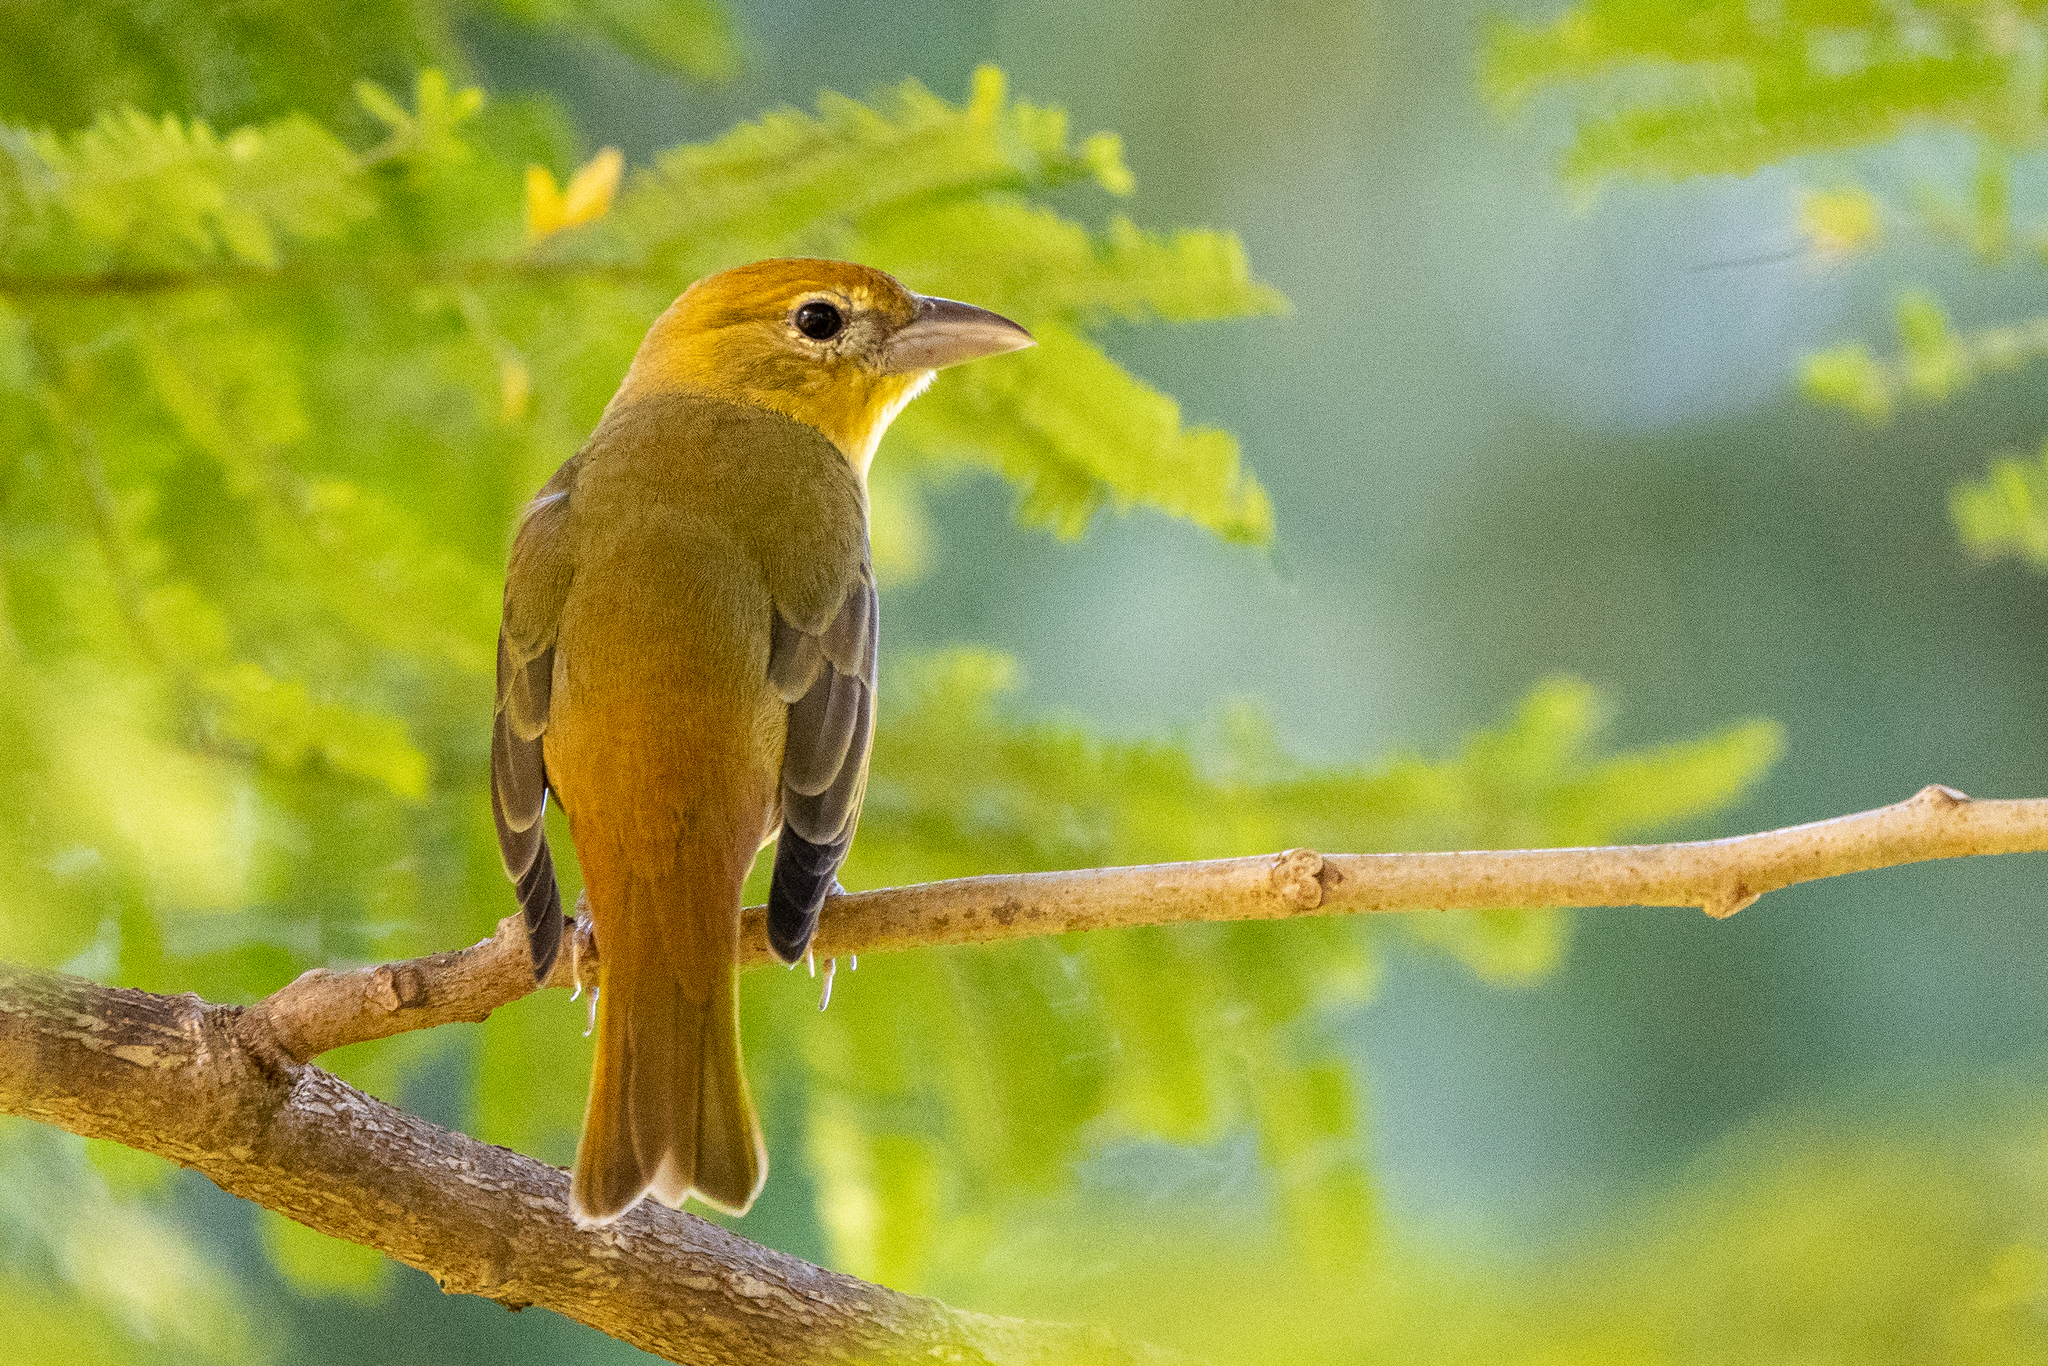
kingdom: Animalia
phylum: Chordata
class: Aves
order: Passeriformes
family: Cardinalidae
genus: Piranga
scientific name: Piranga rubra
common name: Summer tanager
